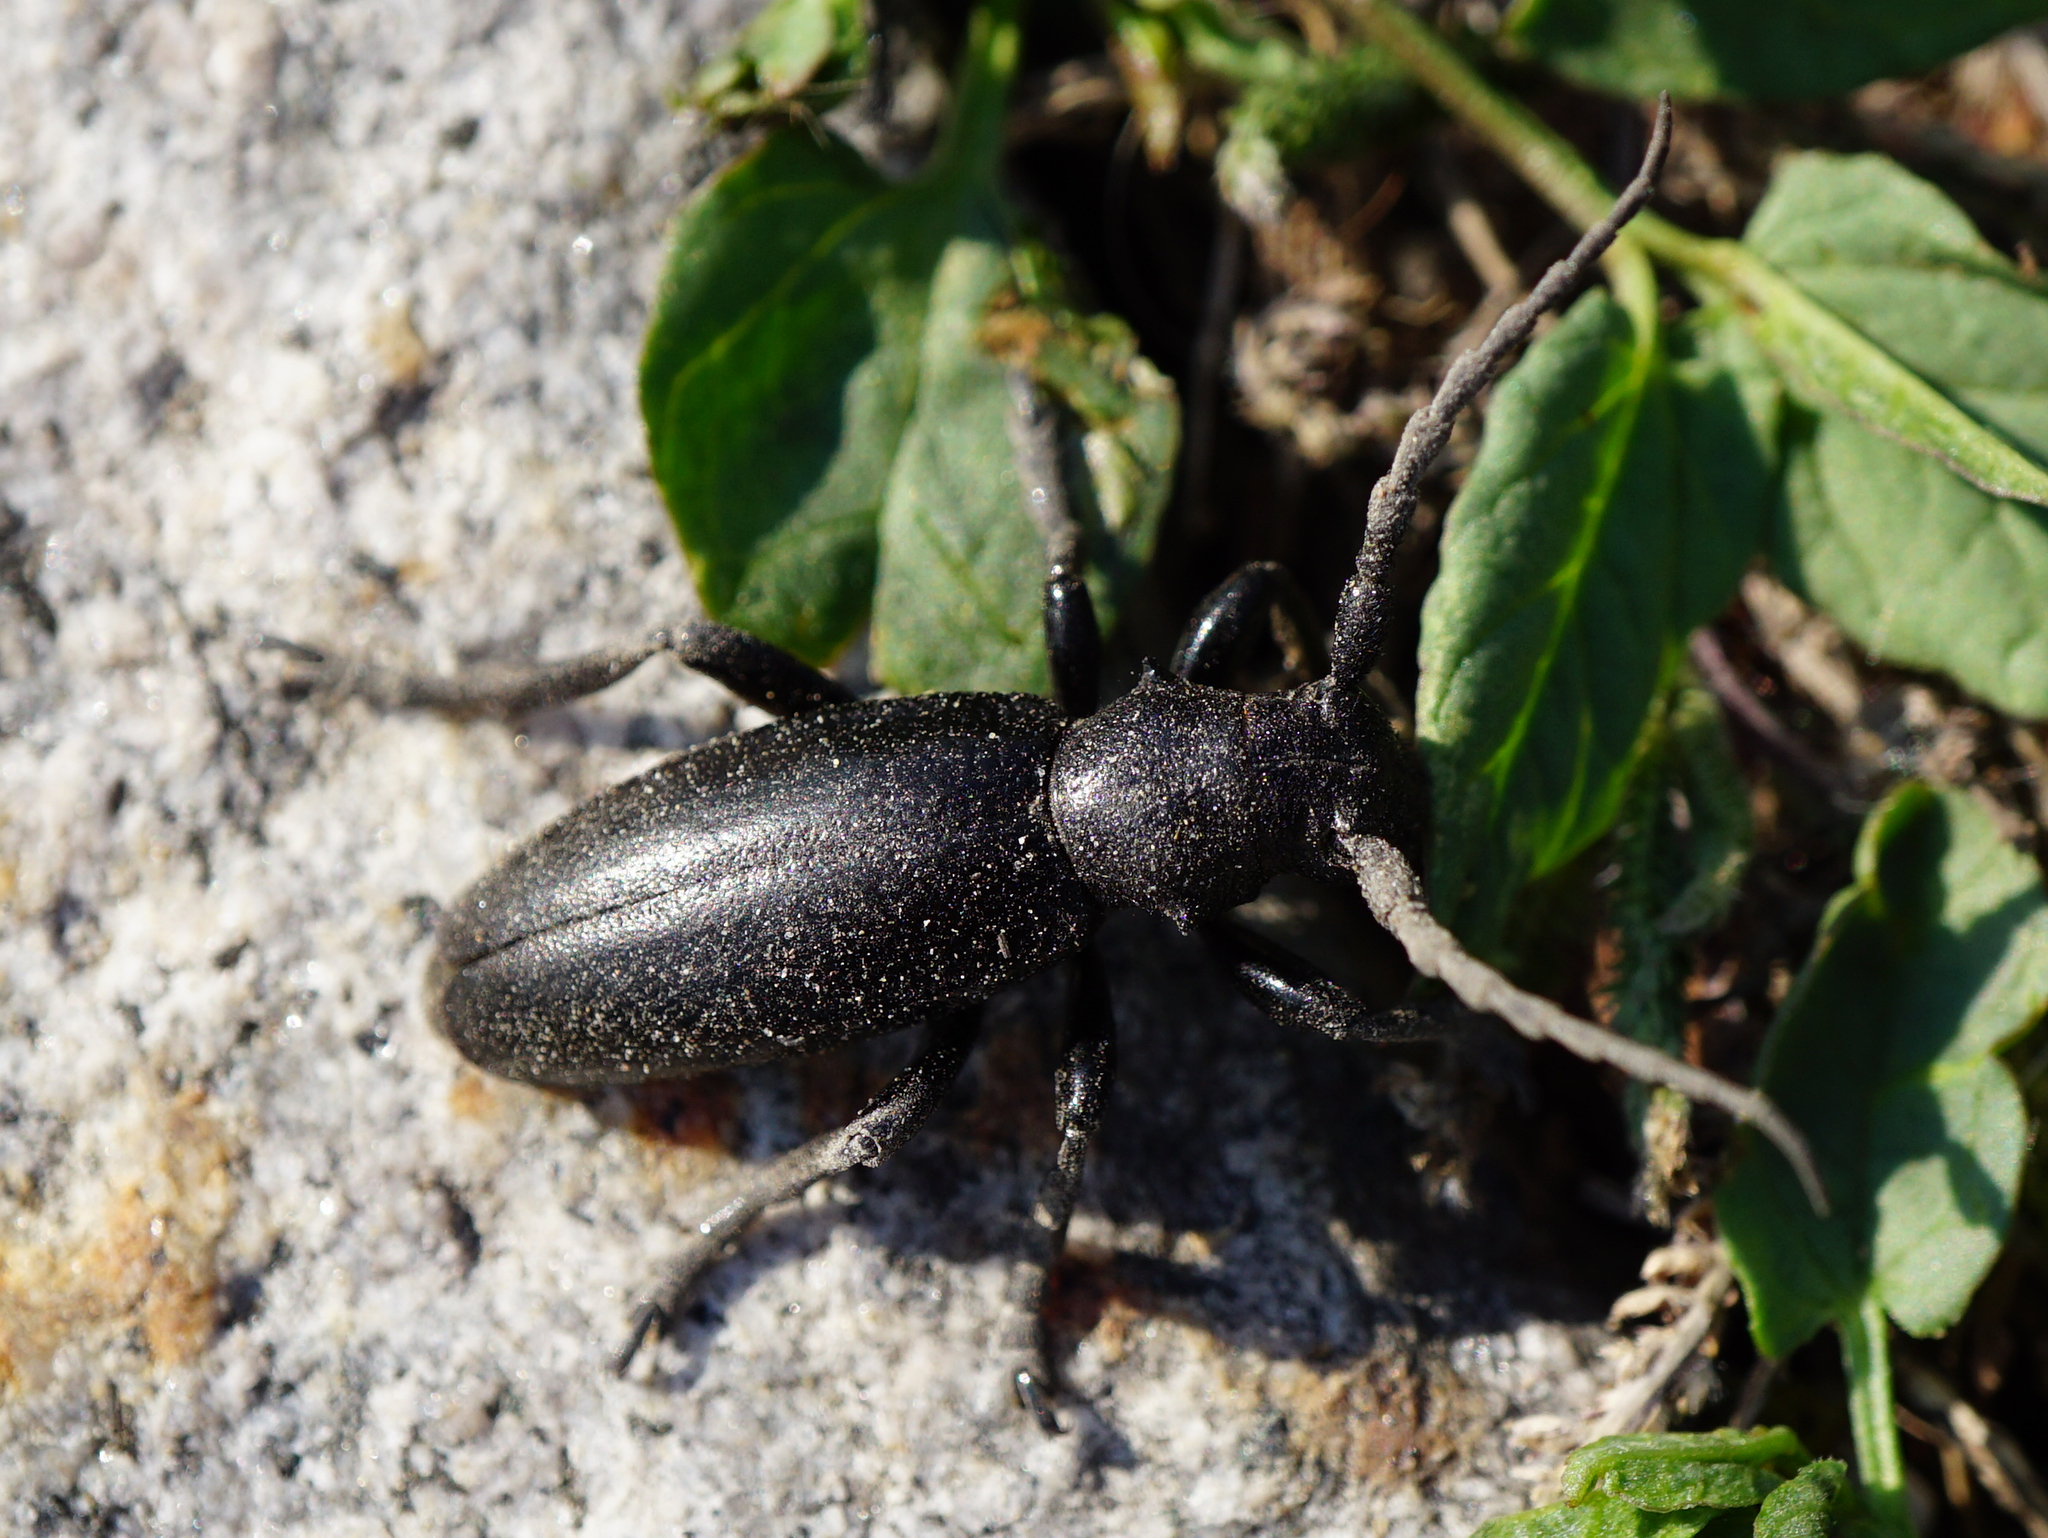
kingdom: Animalia
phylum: Arthropoda
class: Insecta
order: Coleoptera
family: Cerambycidae
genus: Dorcadion
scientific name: Dorcadion aethiops
